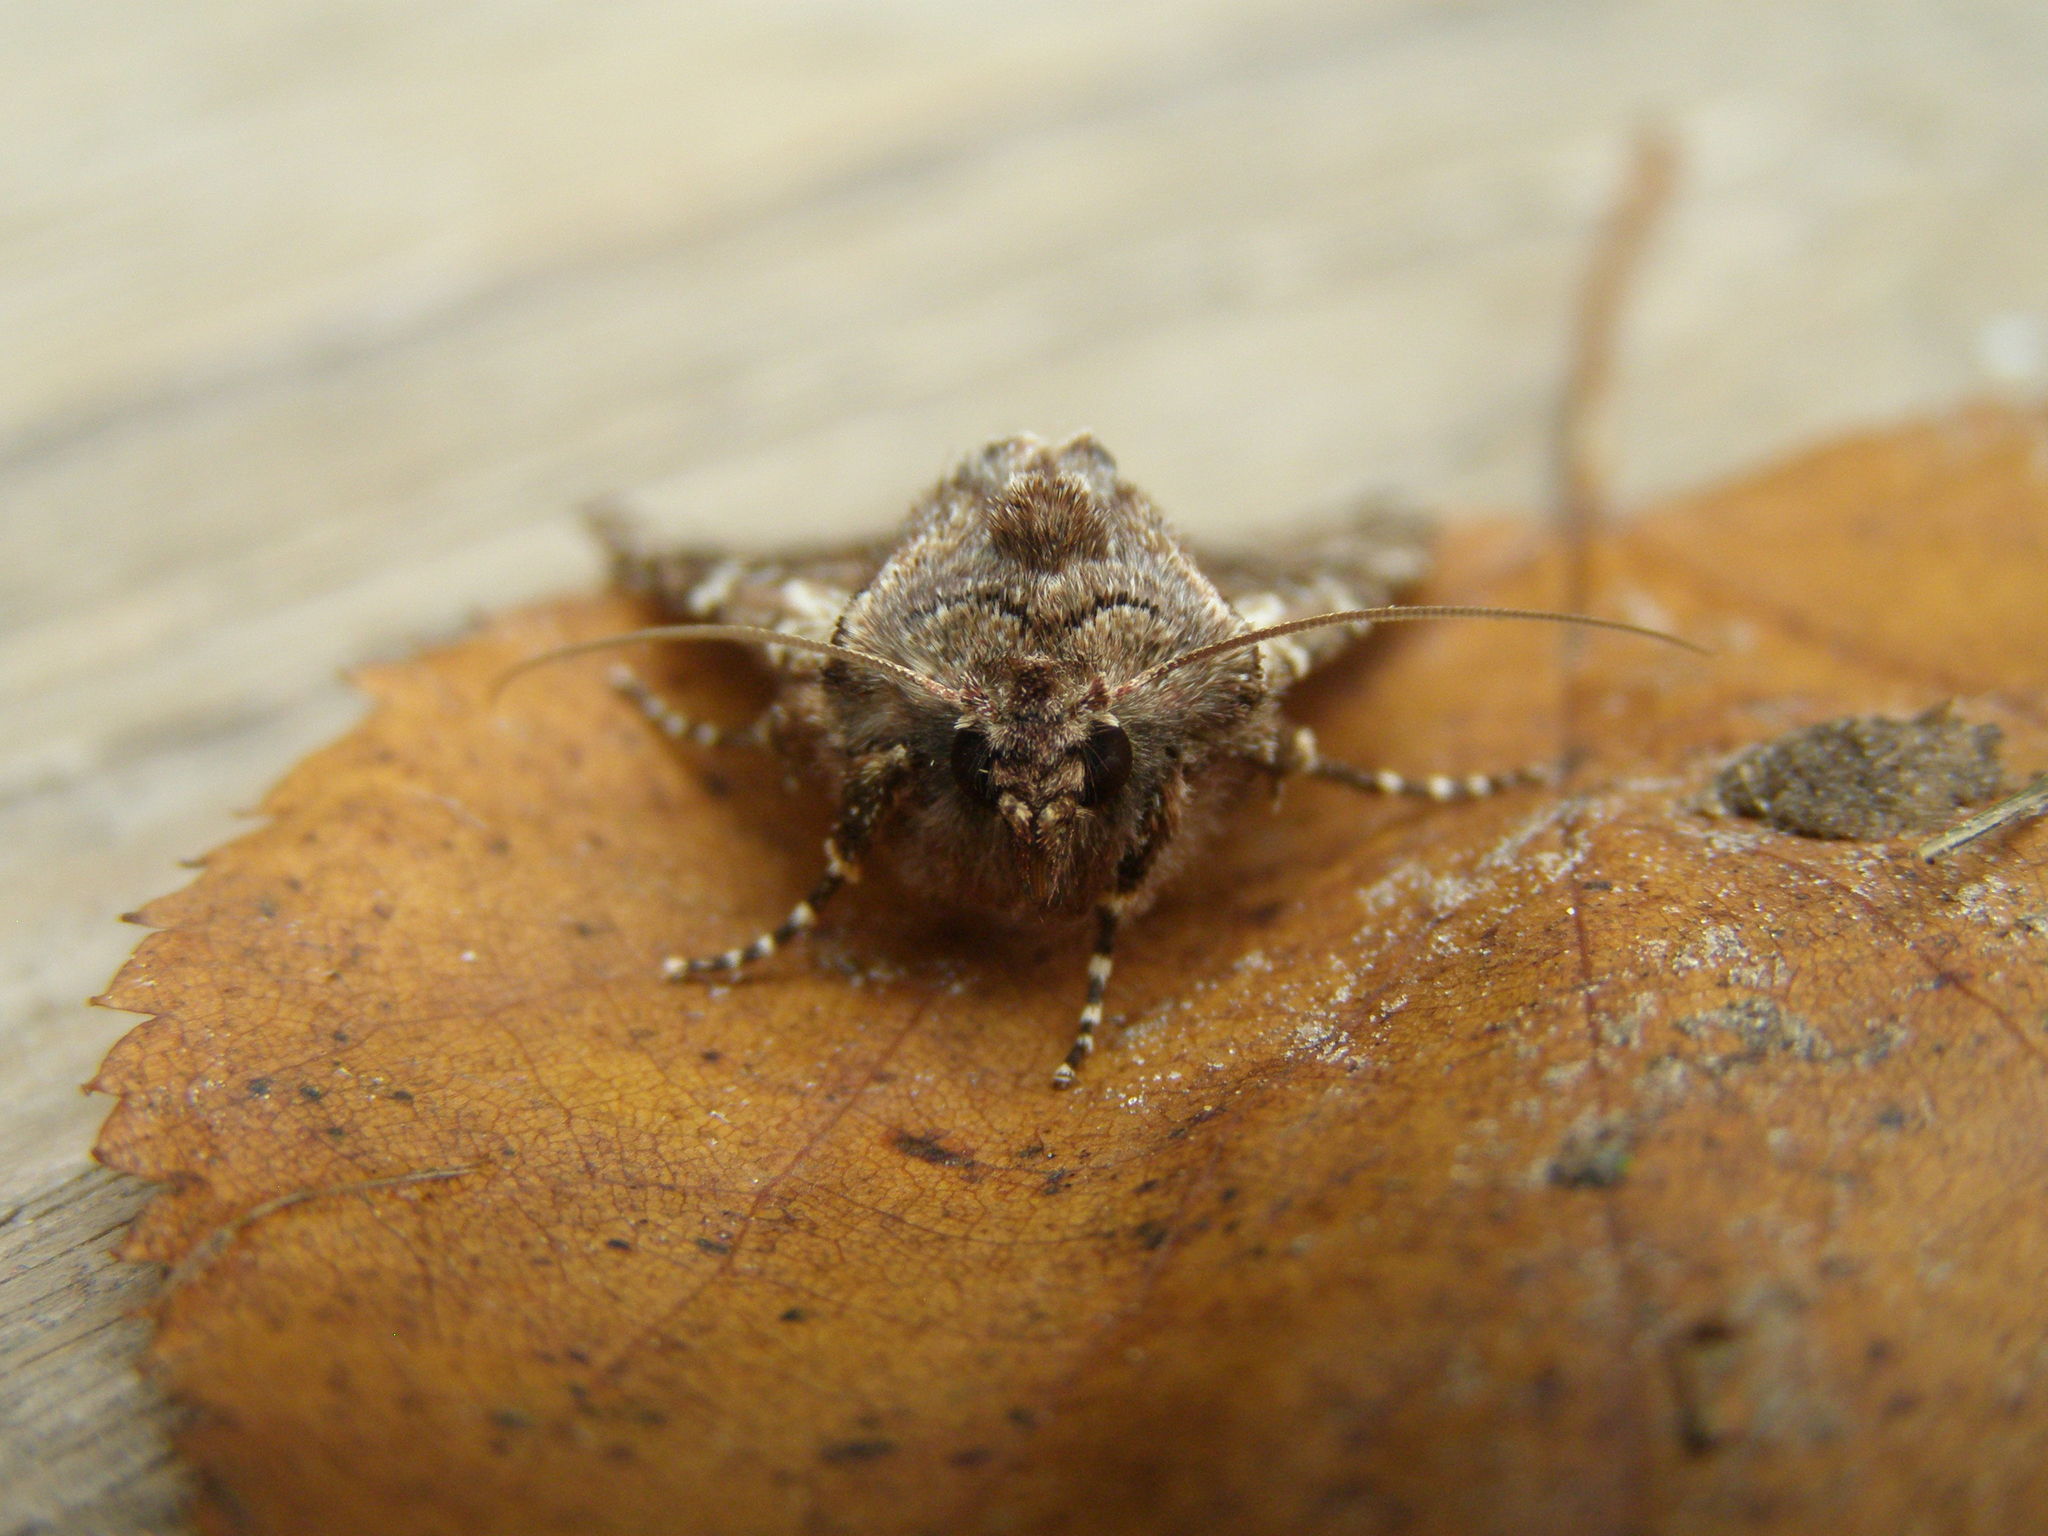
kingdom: Animalia
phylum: Arthropoda
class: Insecta
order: Lepidoptera
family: Noctuidae
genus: Blepharita
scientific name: Blepharita amica
